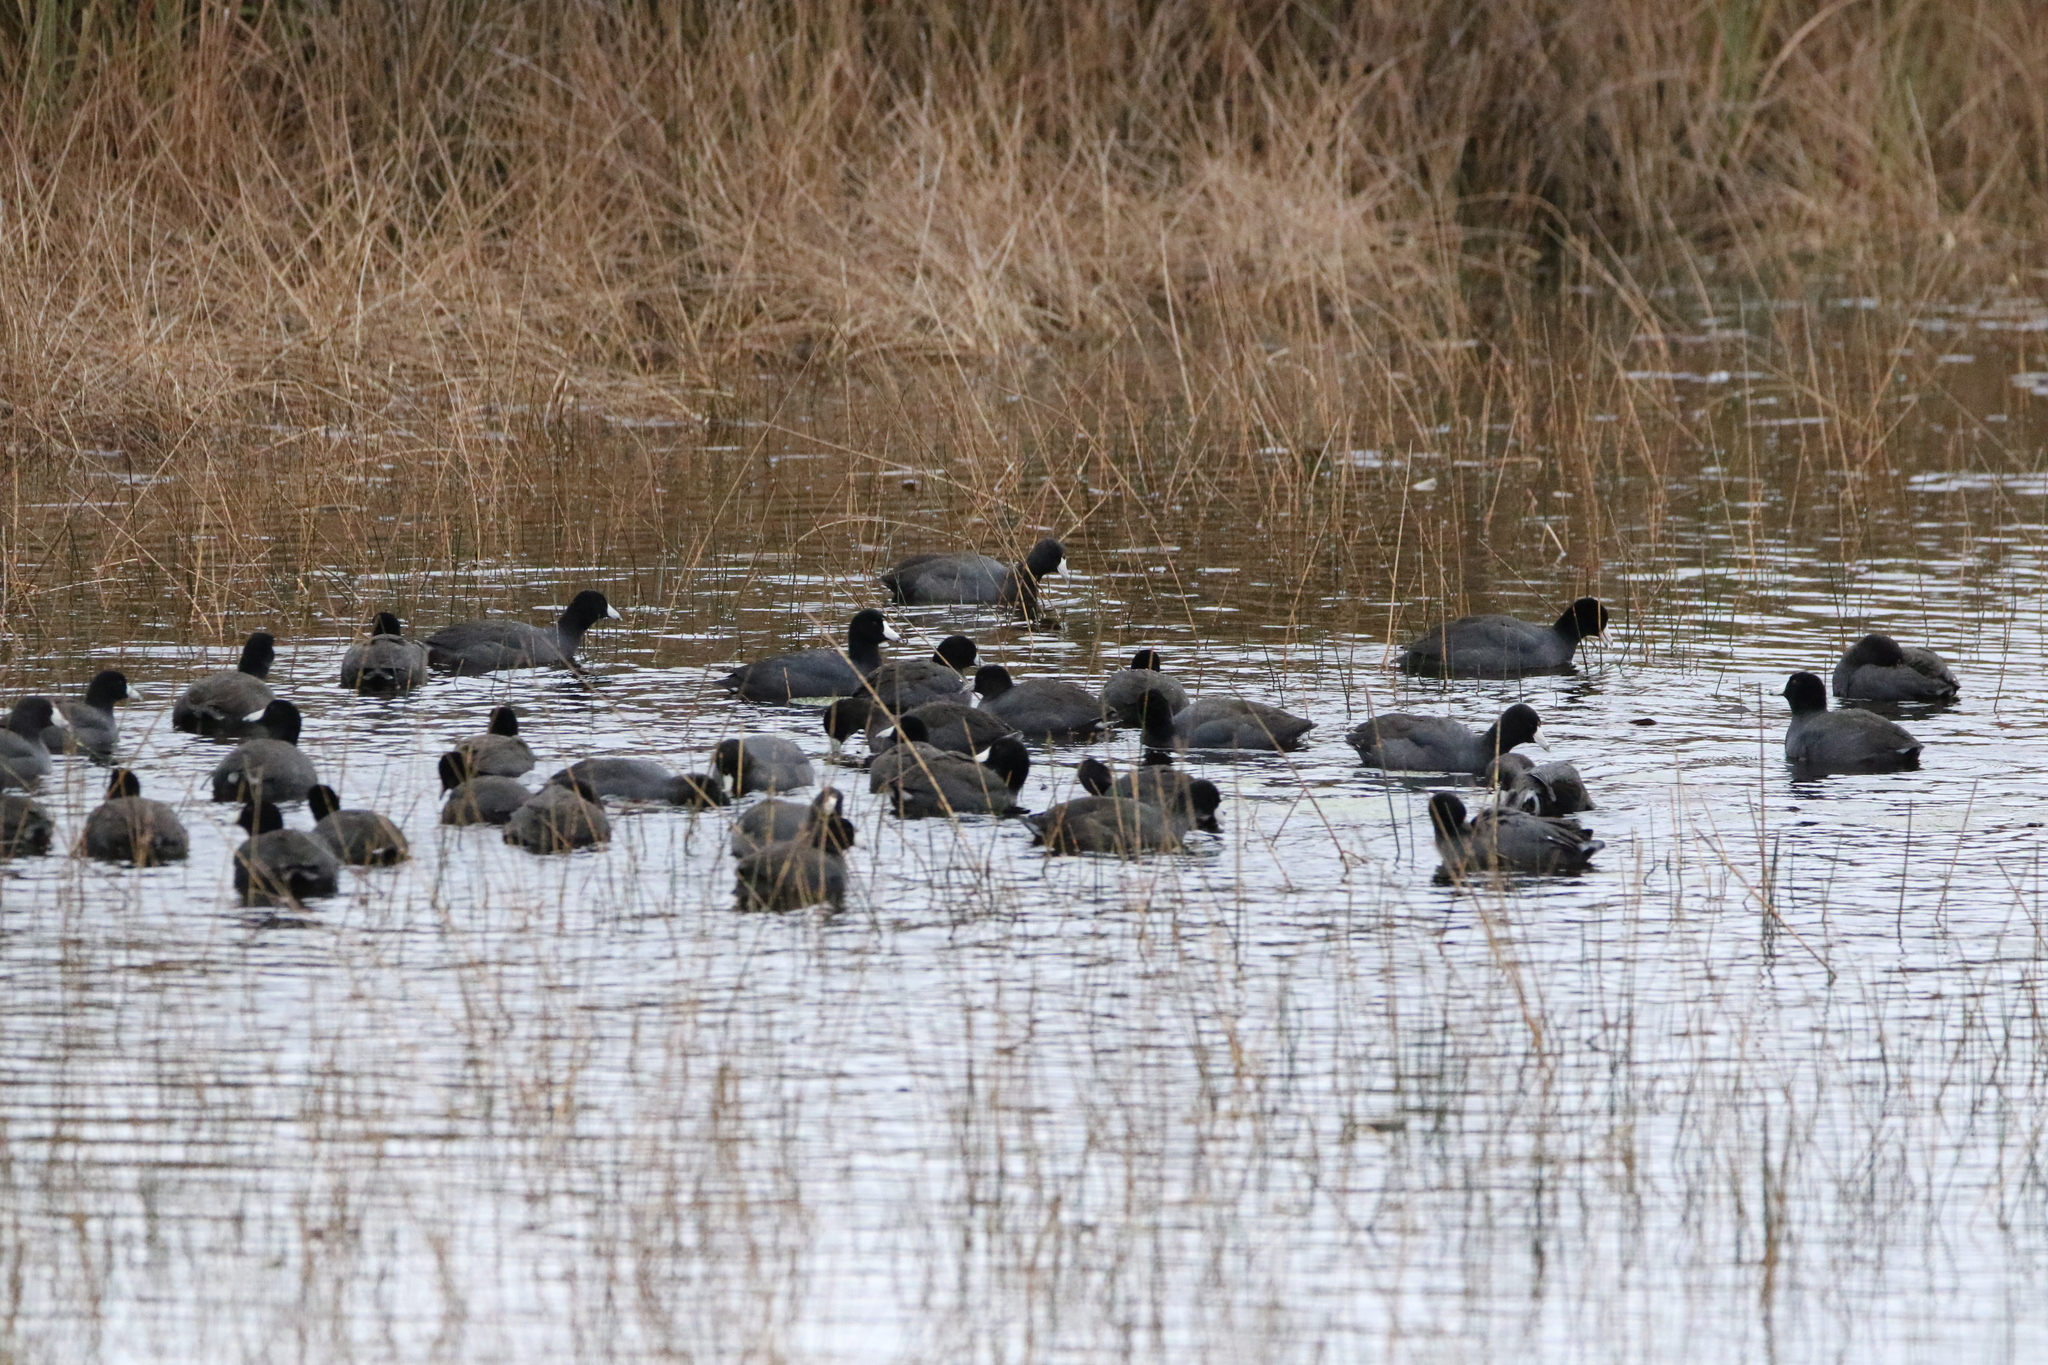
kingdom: Animalia
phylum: Chordata
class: Aves
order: Gruiformes
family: Rallidae
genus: Fulica
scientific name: Fulica americana
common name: American coot
